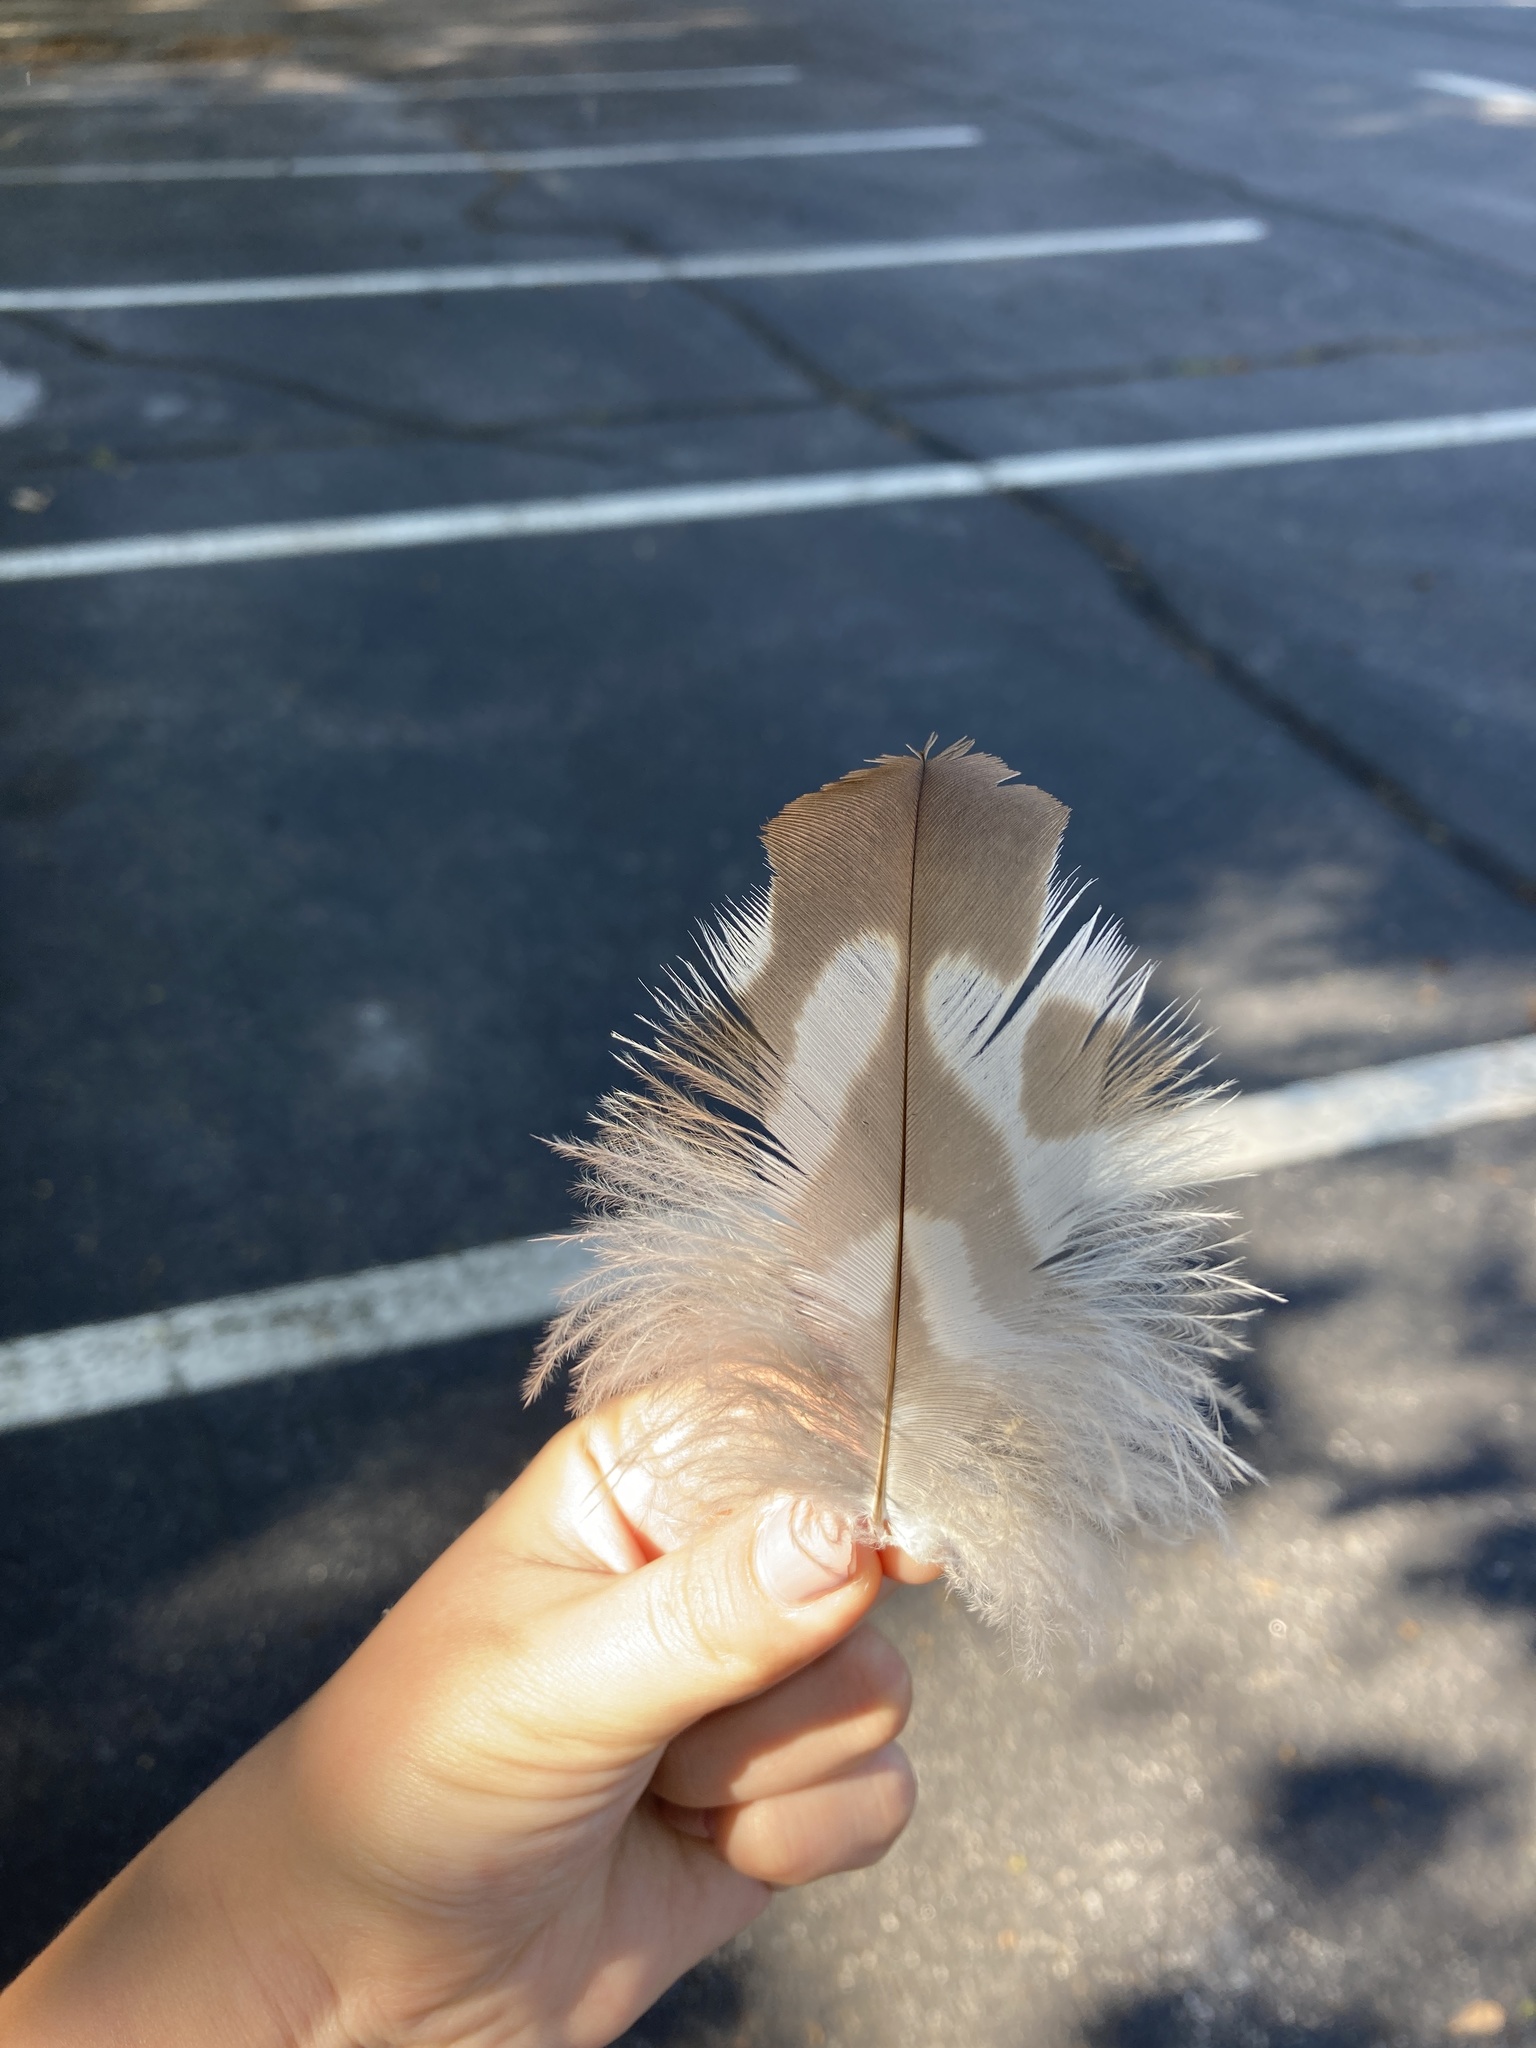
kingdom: Animalia
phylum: Chordata
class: Aves
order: Accipitriformes
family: Accipitridae
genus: Buteo
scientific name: Buteo jamaicensis
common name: Red-tailed hawk
